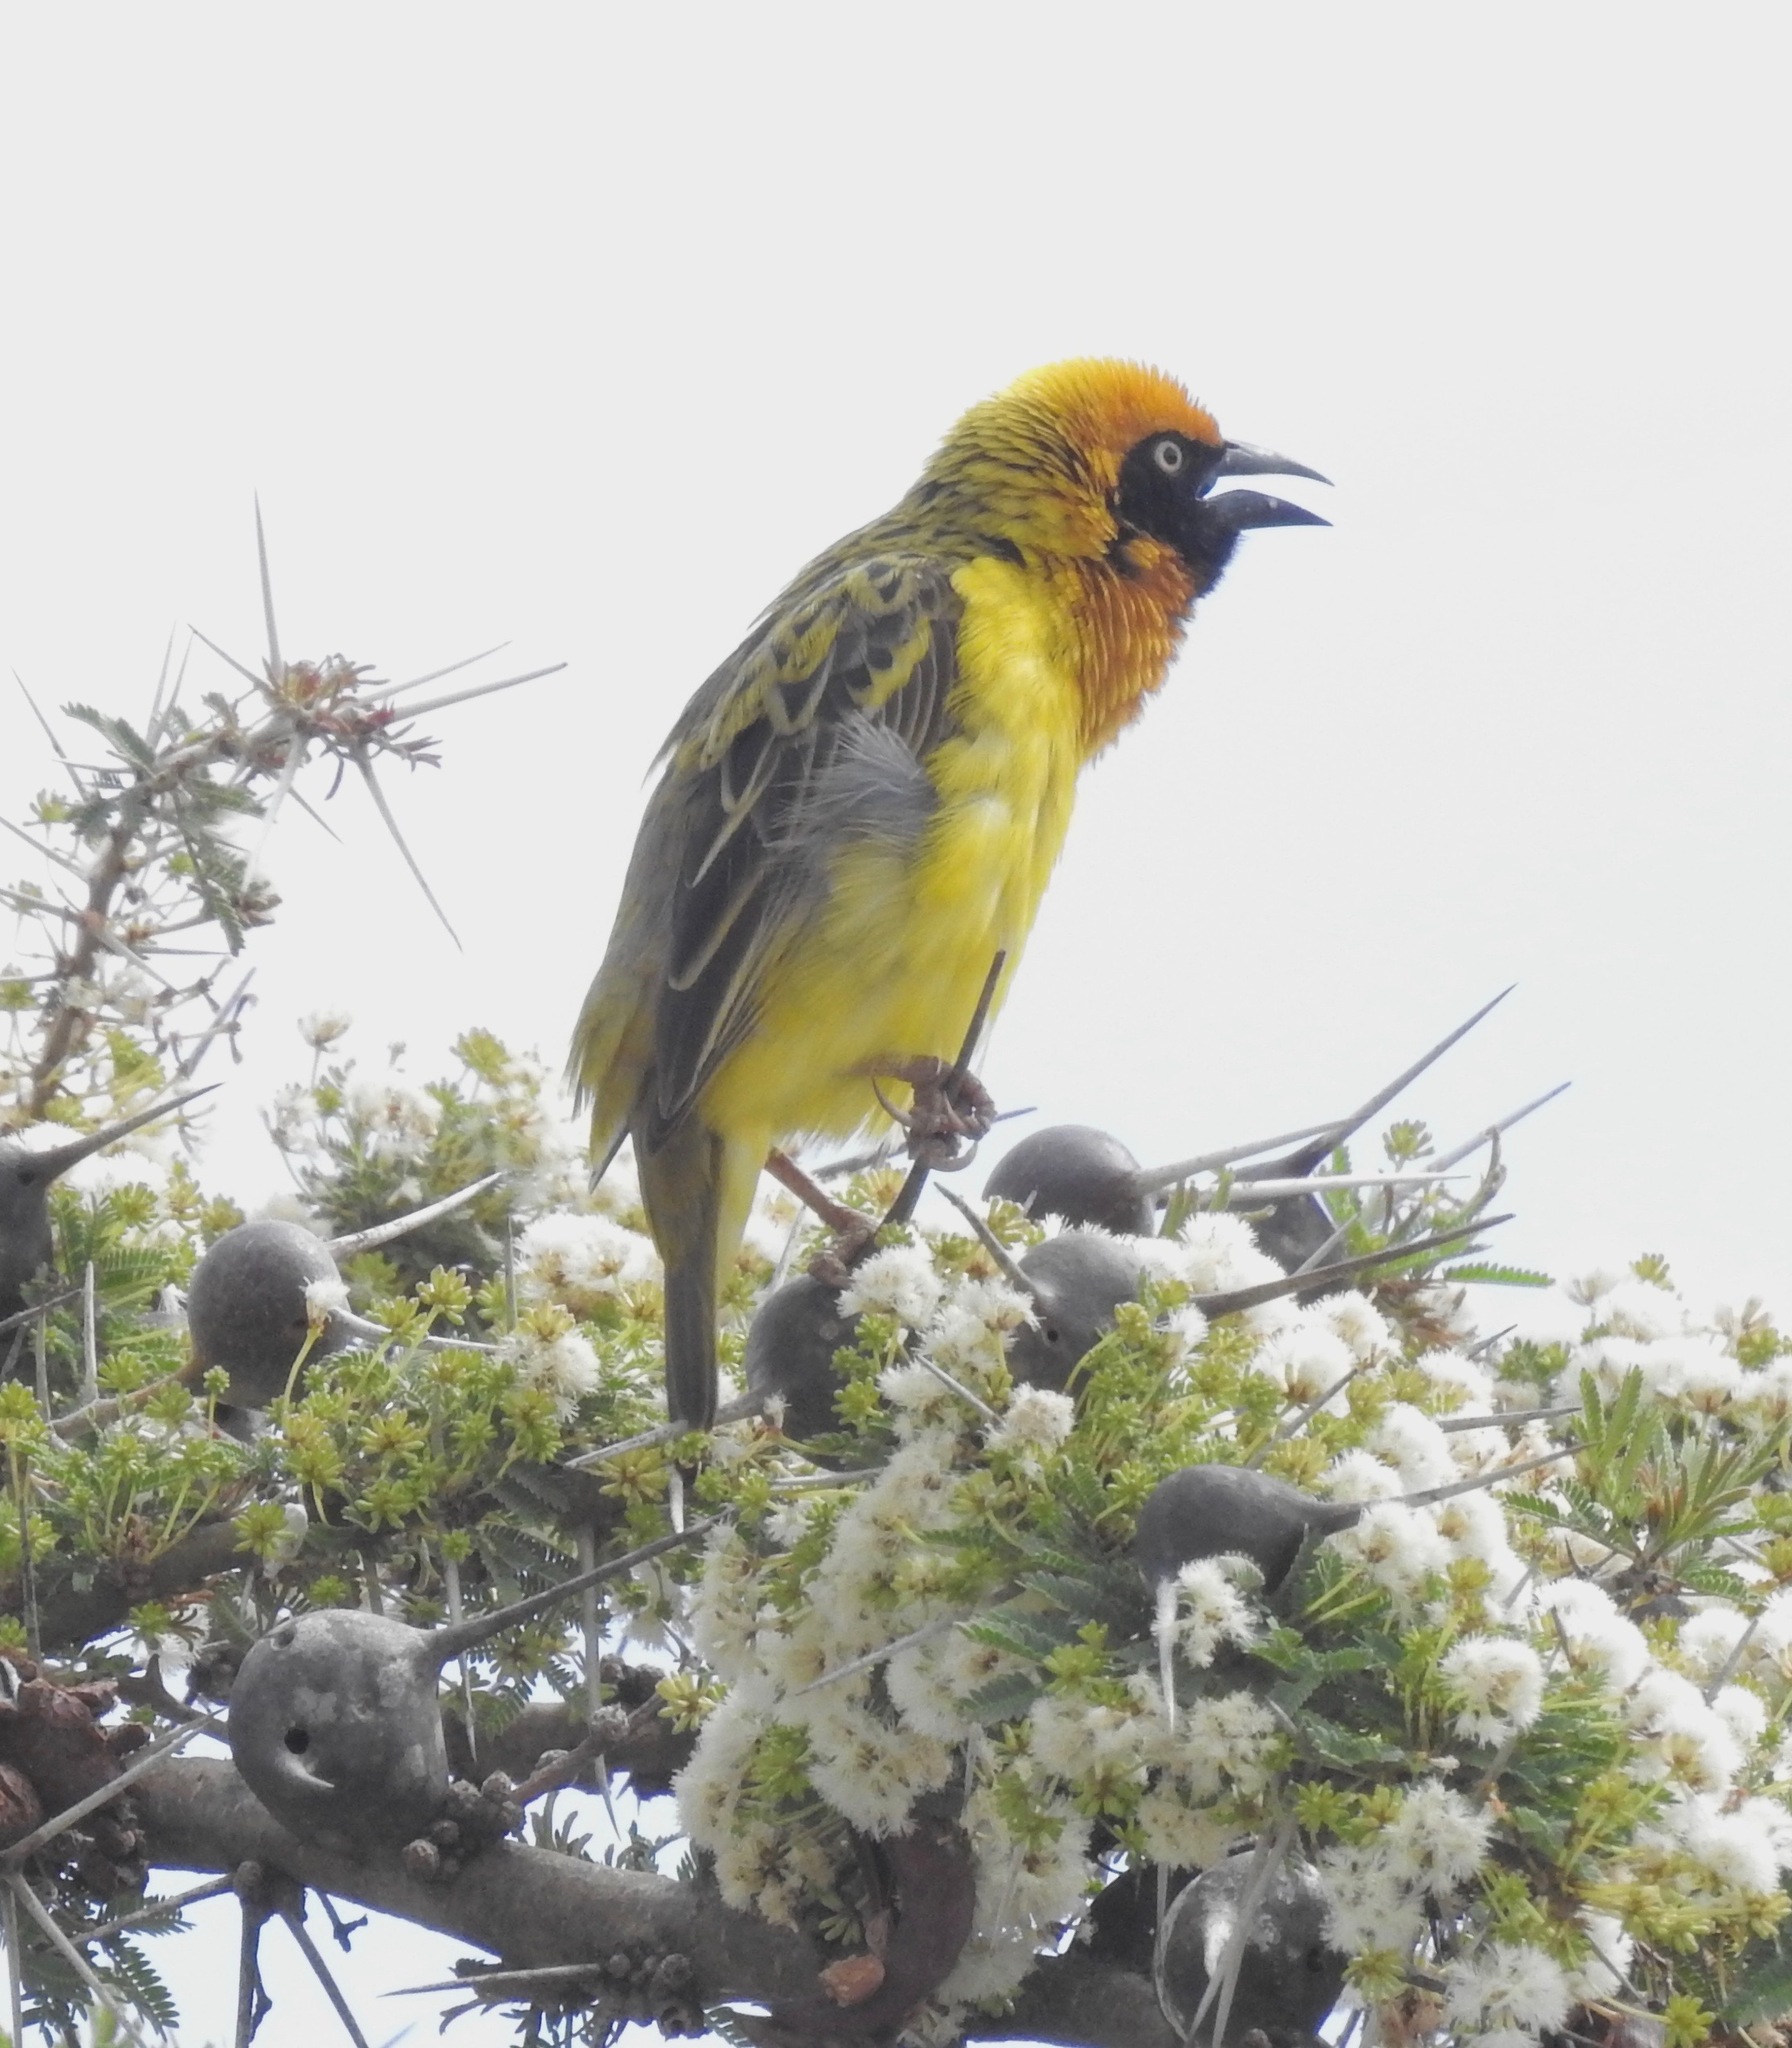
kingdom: Animalia
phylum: Chordata
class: Aves
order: Passeriformes
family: Ploceidae
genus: Ploceus
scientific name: Ploceus spekei
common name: Speke's weaver
